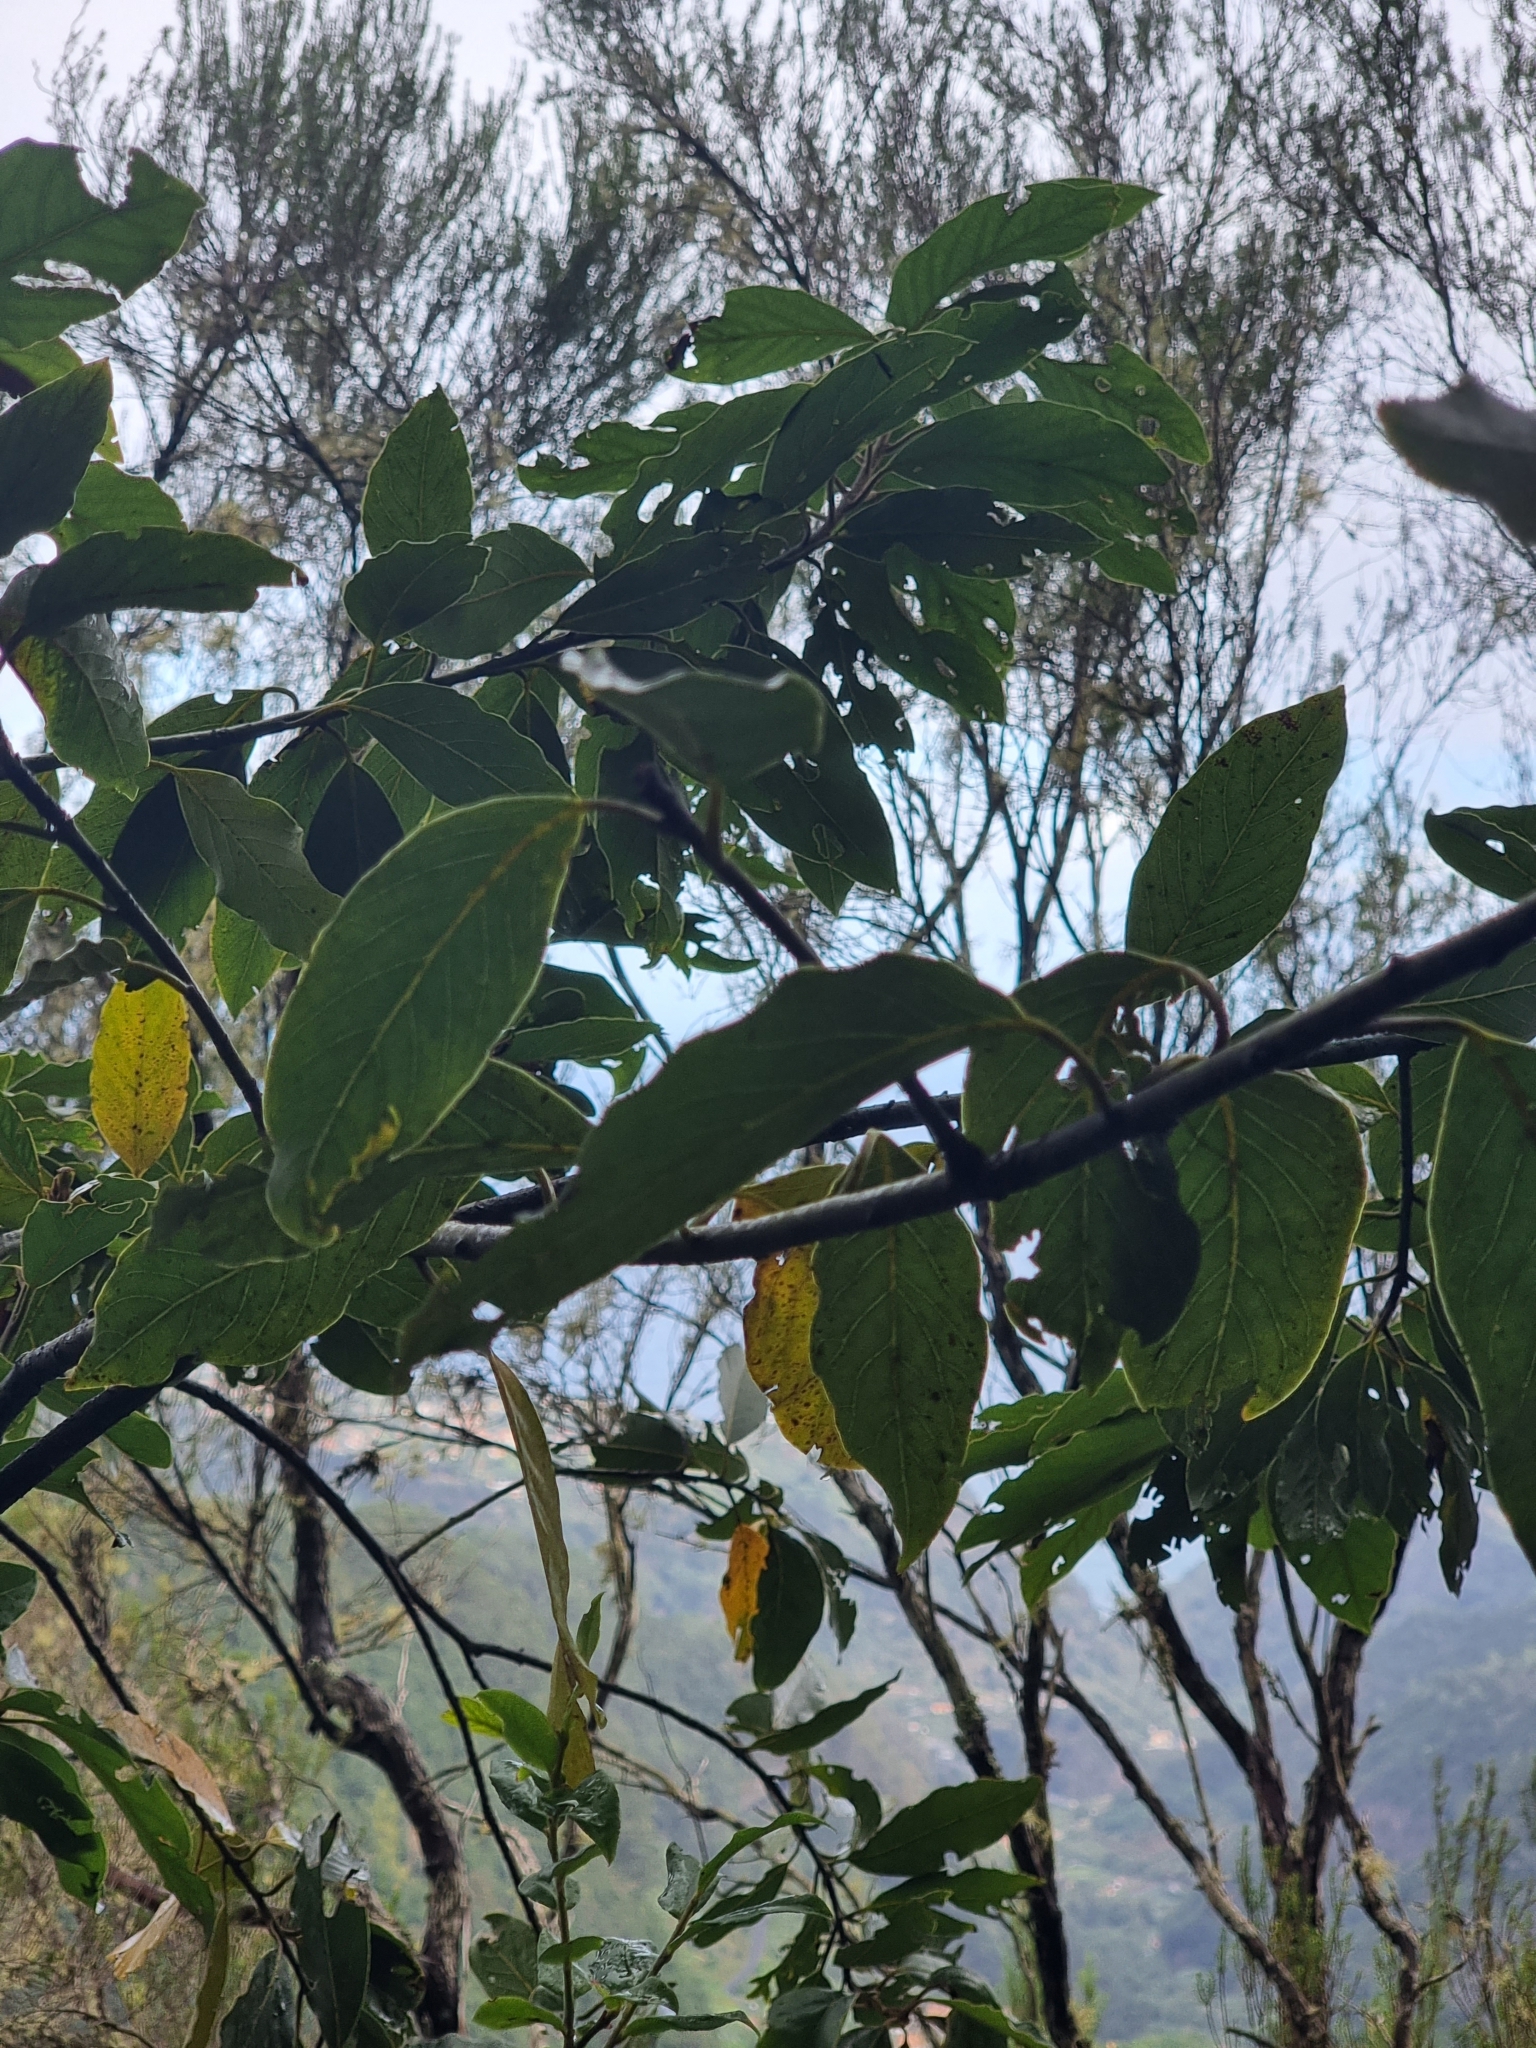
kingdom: Plantae
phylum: Tracheophyta
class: Magnoliopsida
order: Laurales
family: Lauraceae
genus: Laurus
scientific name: Laurus novocanariensis
